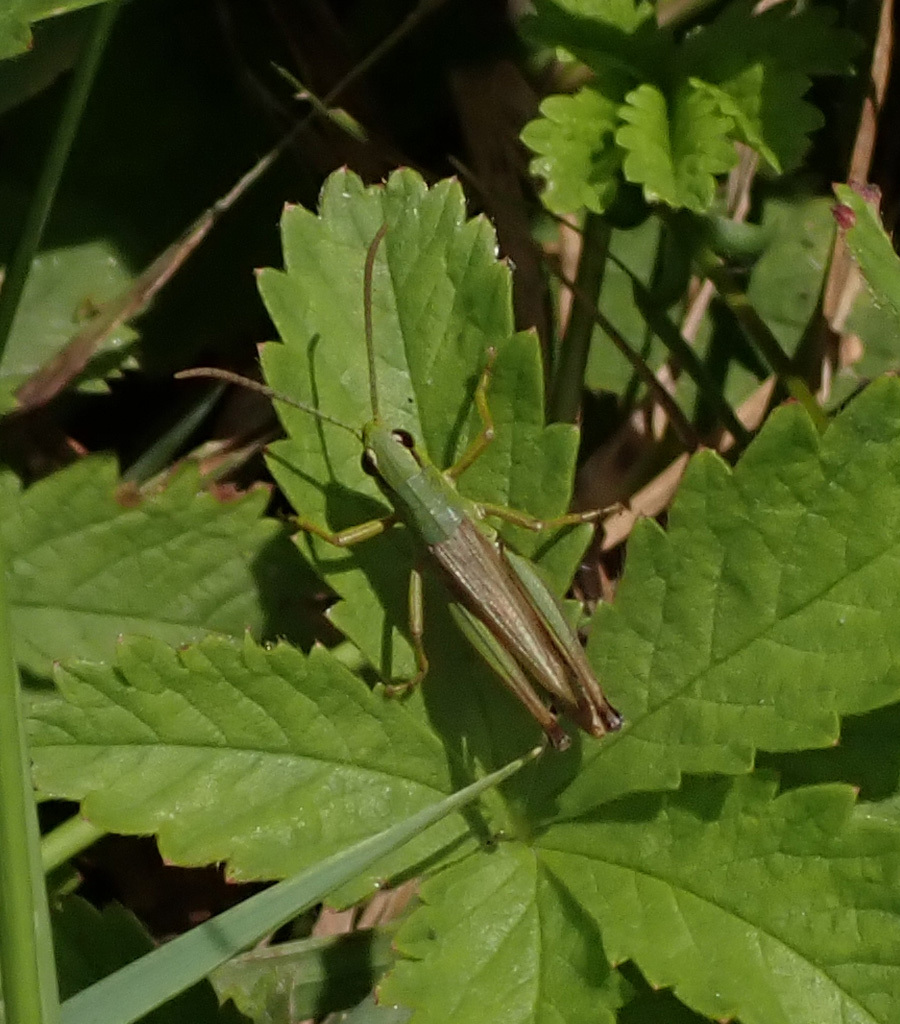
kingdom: Animalia
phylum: Arthropoda
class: Insecta
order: Orthoptera
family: Acrididae
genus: Pseudochorthippus
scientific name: Pseudochorthippus parallelus
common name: Meadow grasshopper
